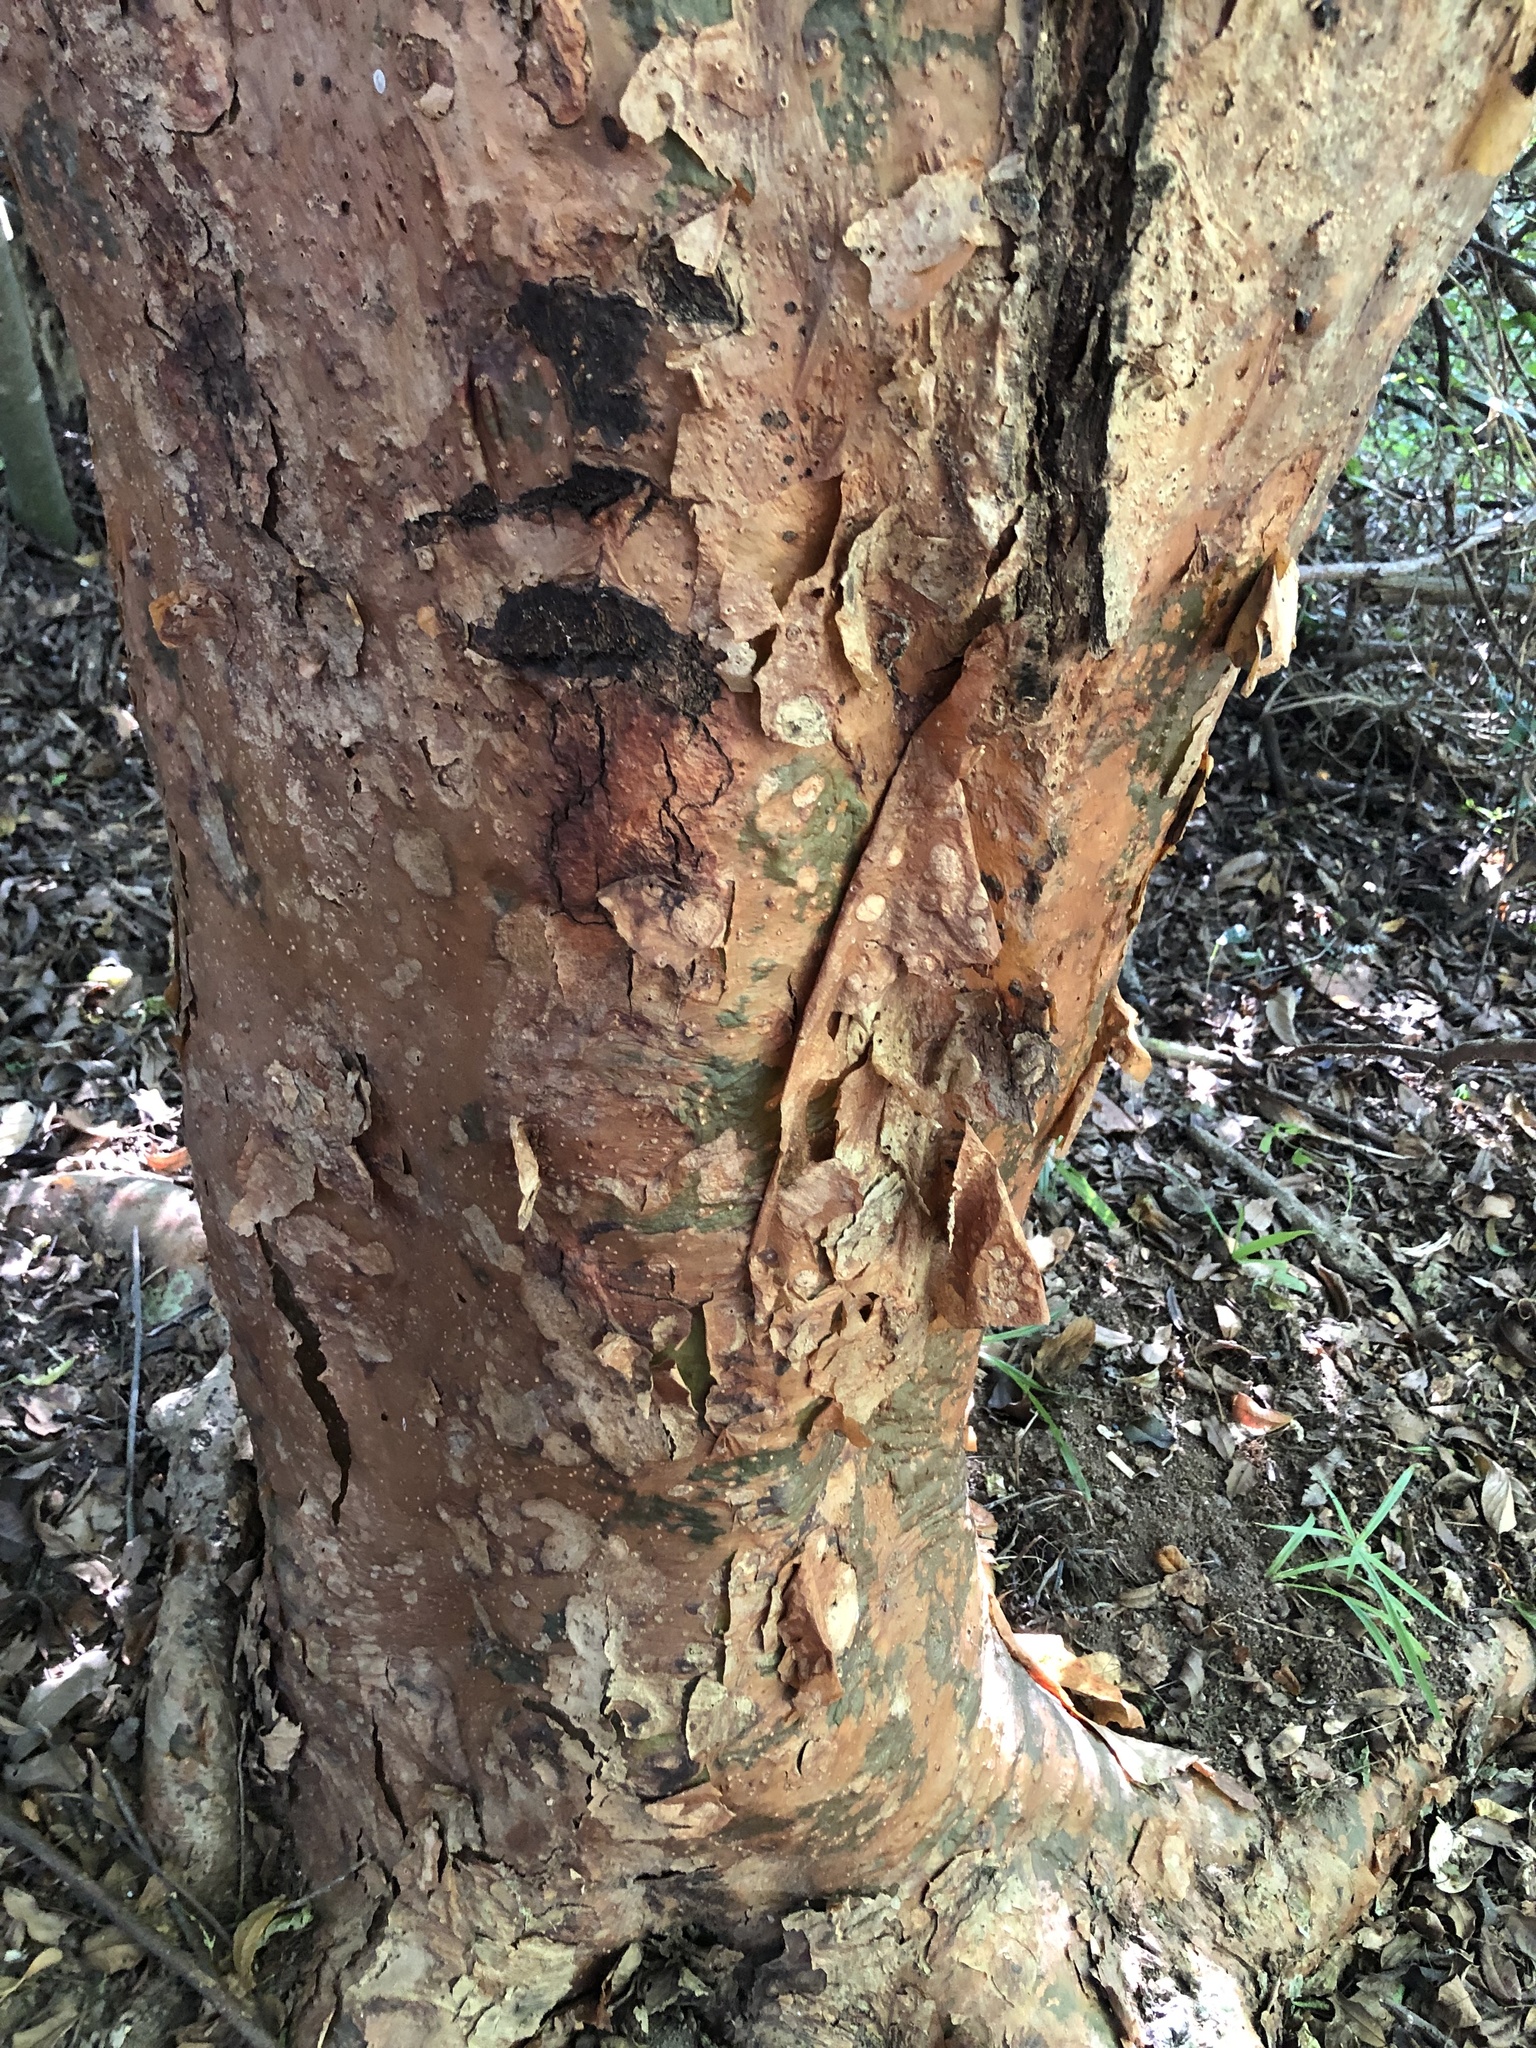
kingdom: Plantae
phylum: Tracheophyta
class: Magnoliopsida
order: Sapindales
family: Burseraceae
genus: Commiphora
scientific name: Commiphora harveyi
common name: Copper-stem corkwood
